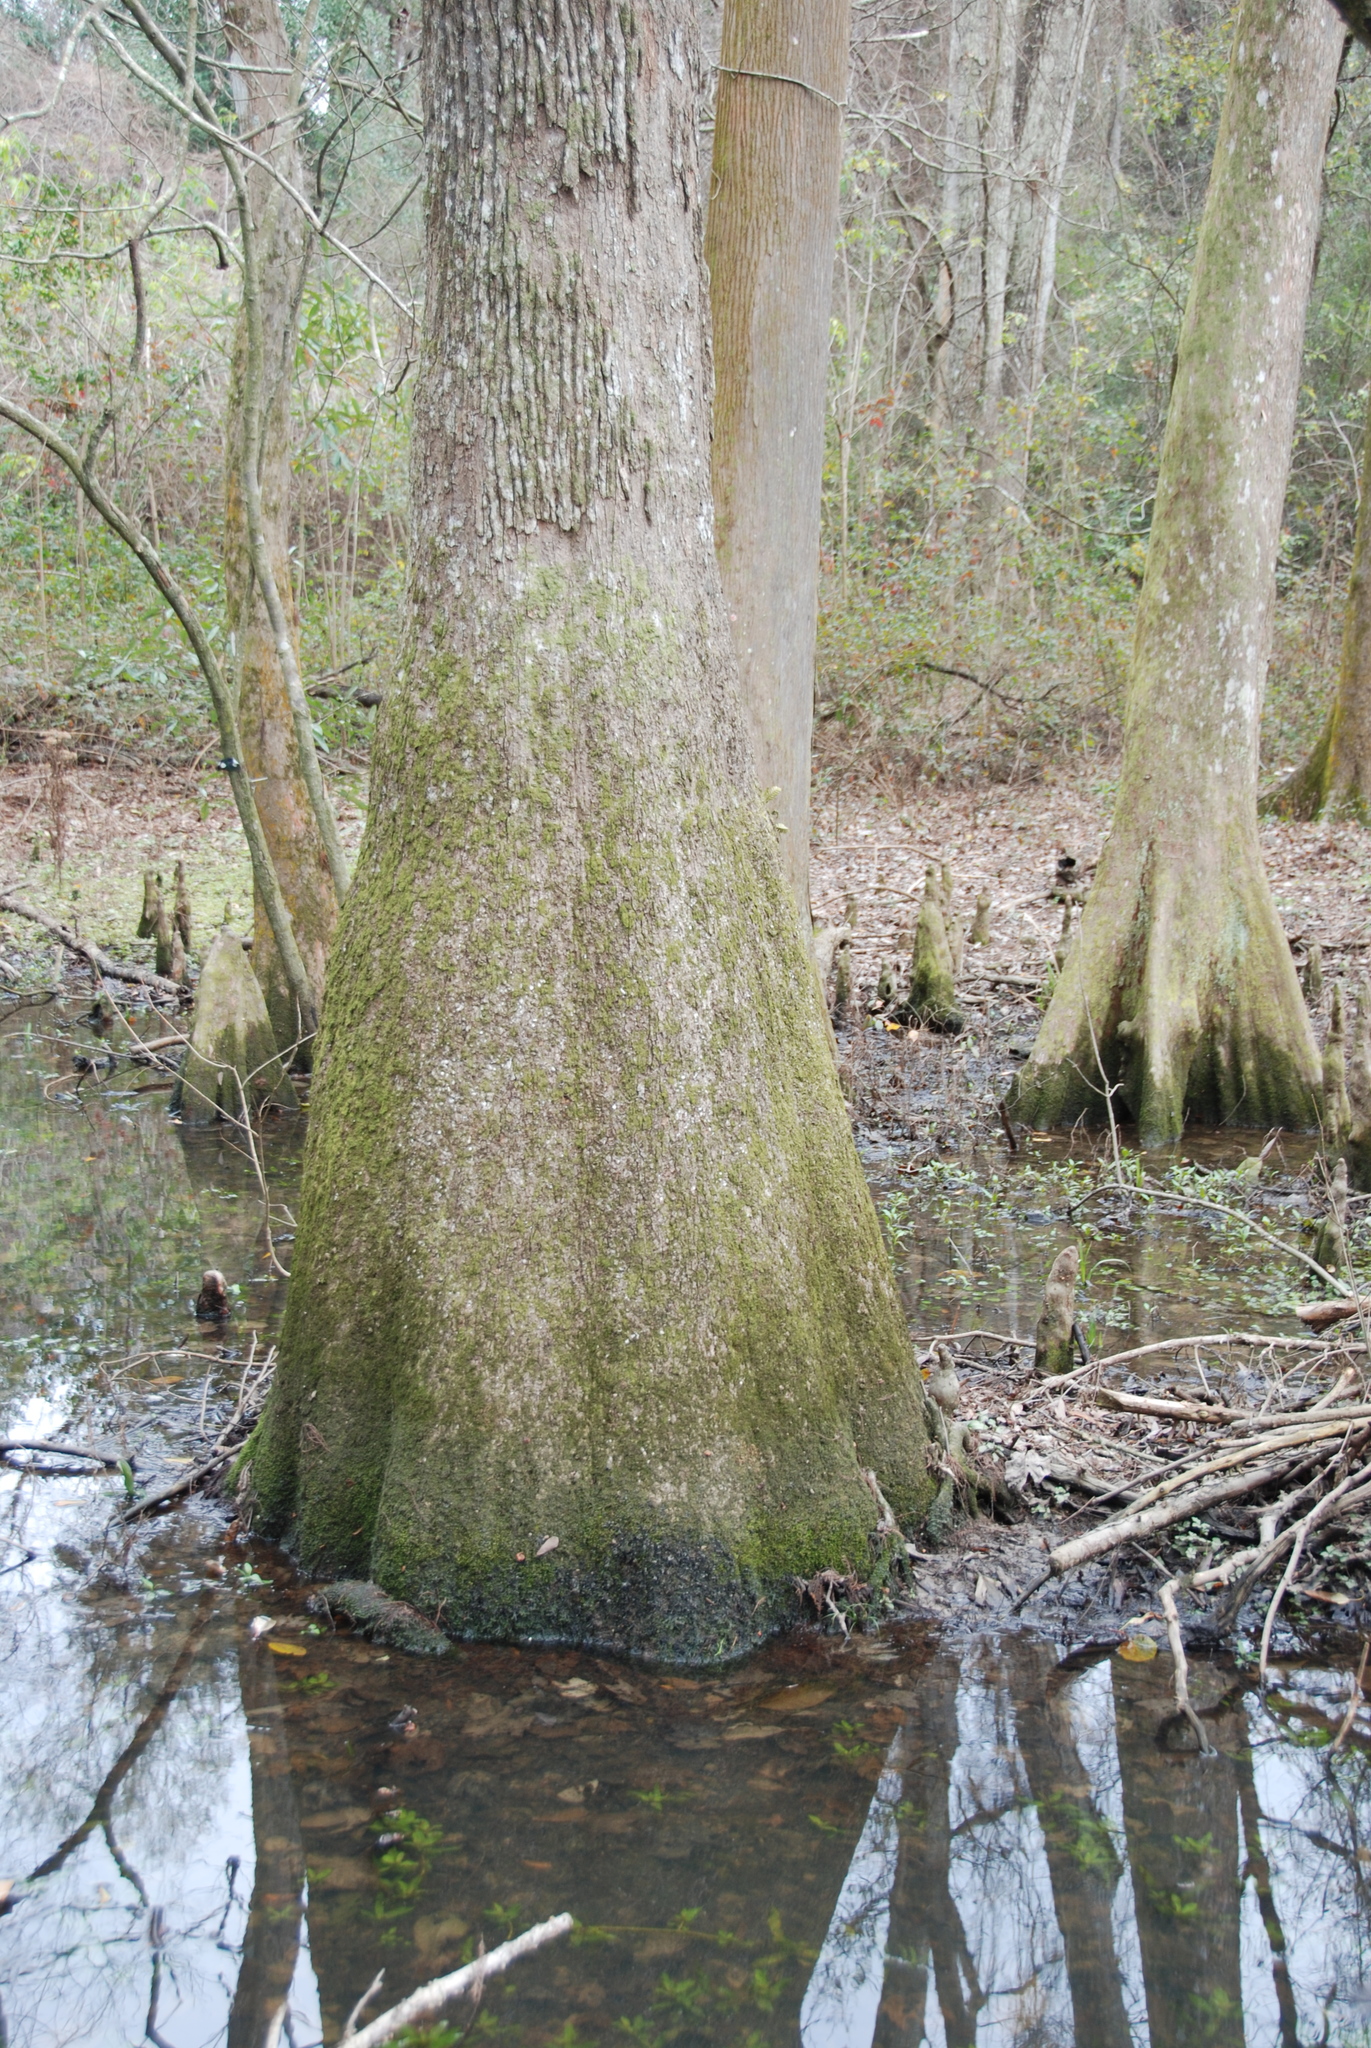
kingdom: Plantae
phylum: Tracheophyta
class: Pinopsida
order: Pinales
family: Cupressaceae
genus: Taxodium
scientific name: Taxodium distichum
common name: Bald cypress
